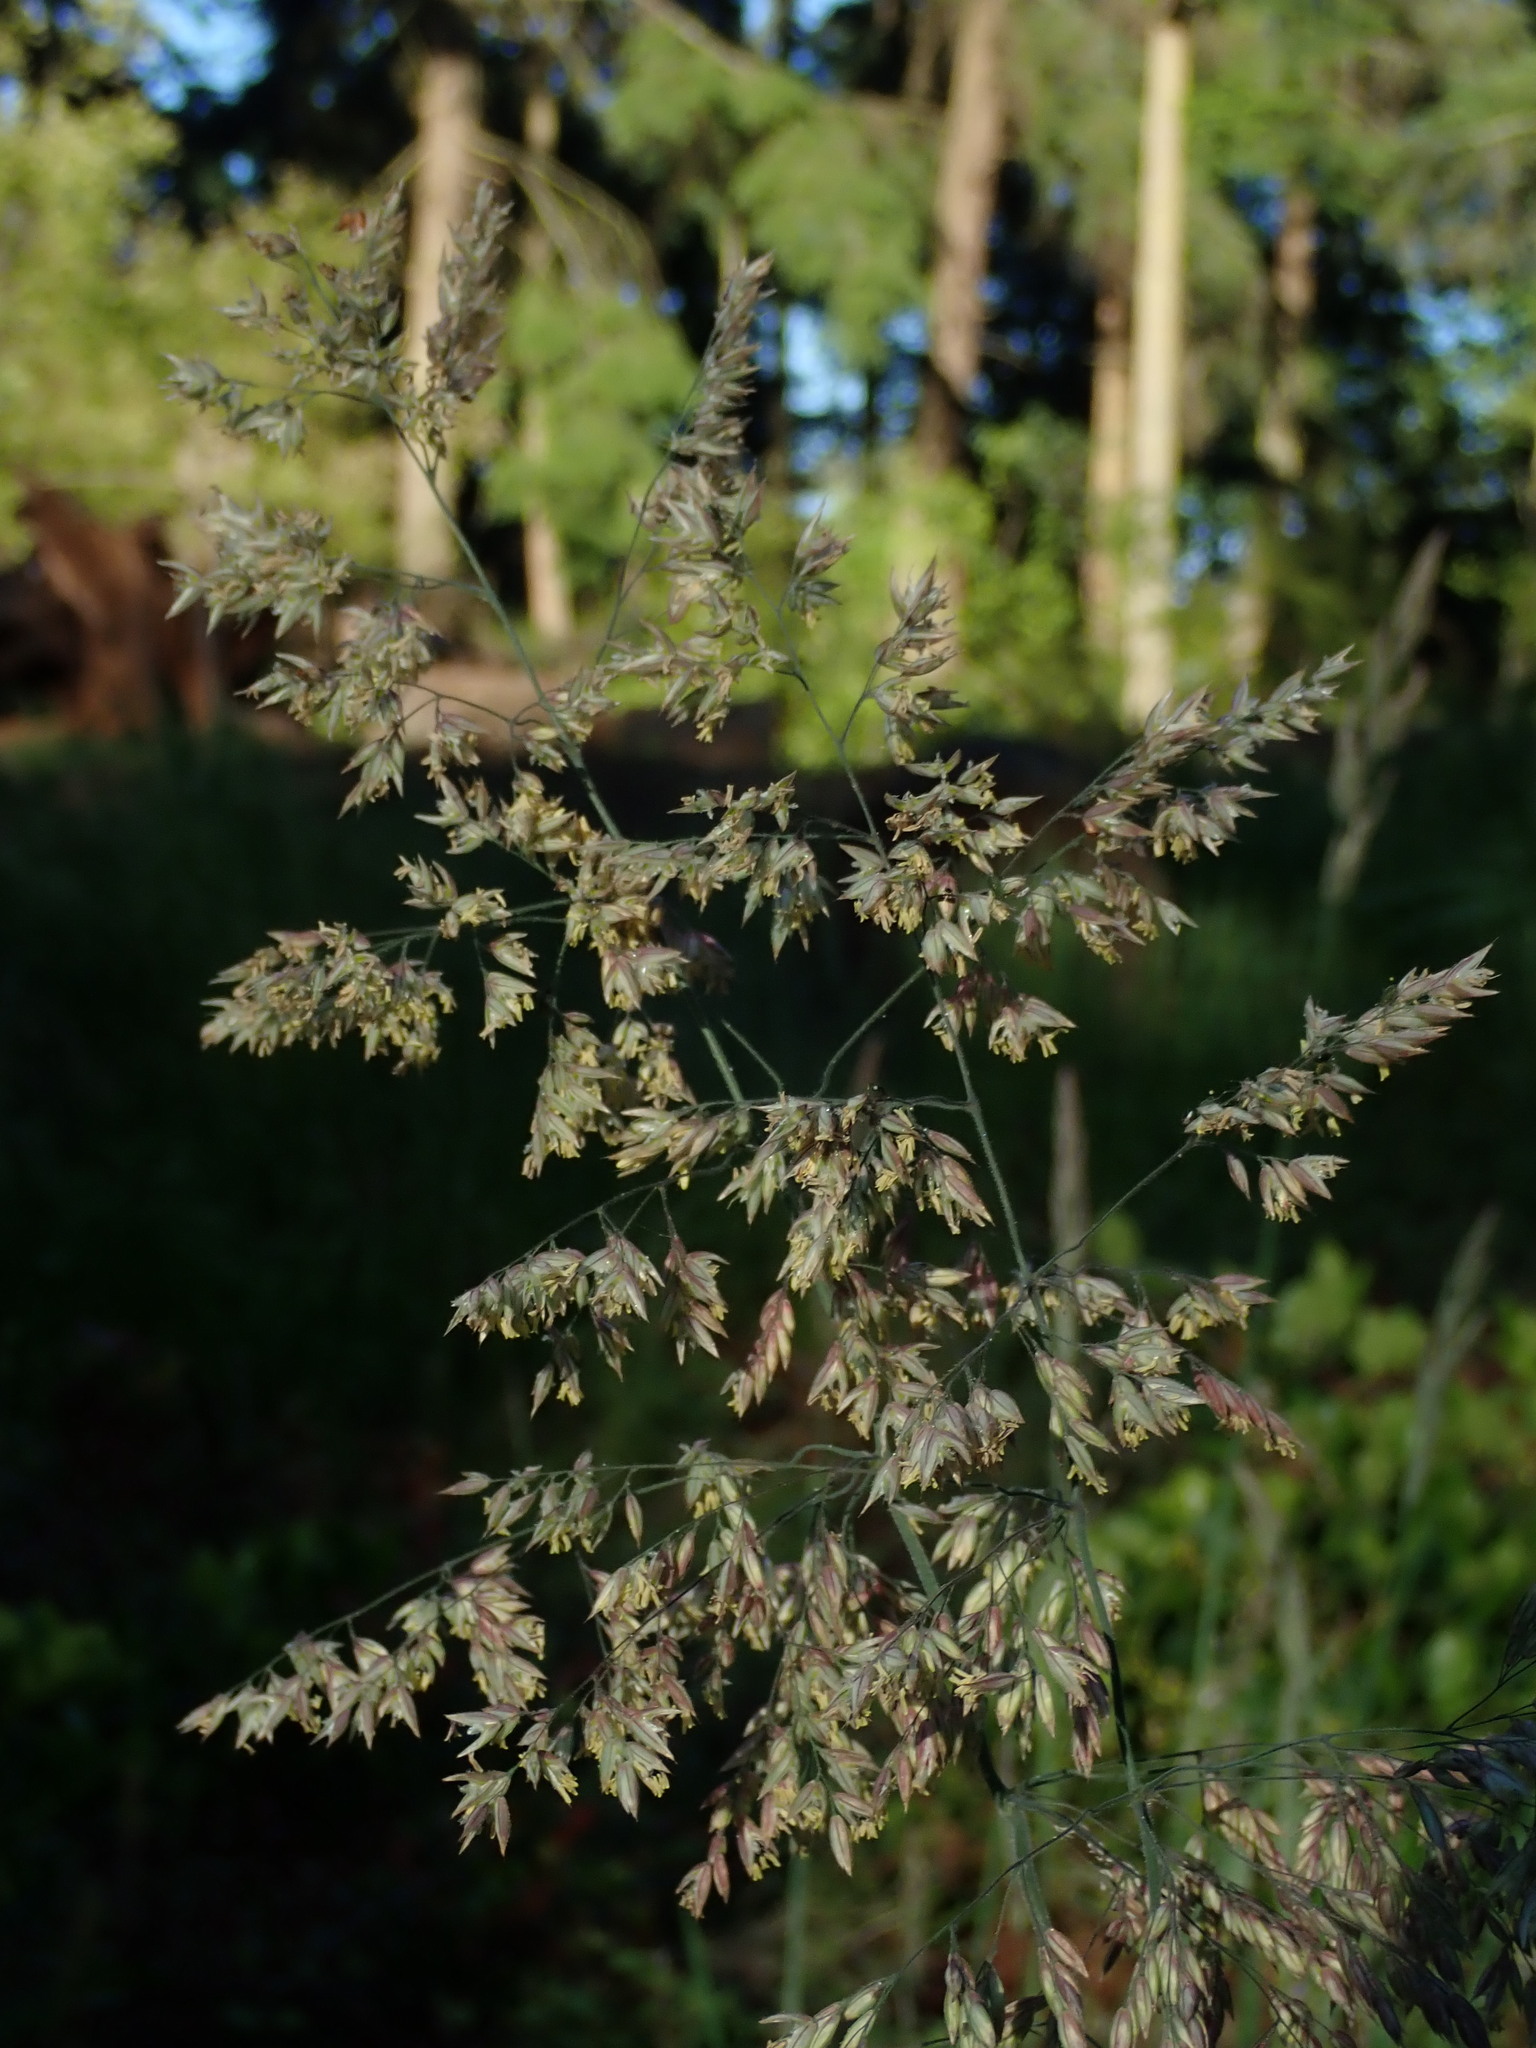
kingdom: Plantae
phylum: Tracheophyta
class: Liliopsida
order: Poales
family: Poaceae
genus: Holcus
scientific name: Holcus lanatus
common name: Yorkshire-fog
